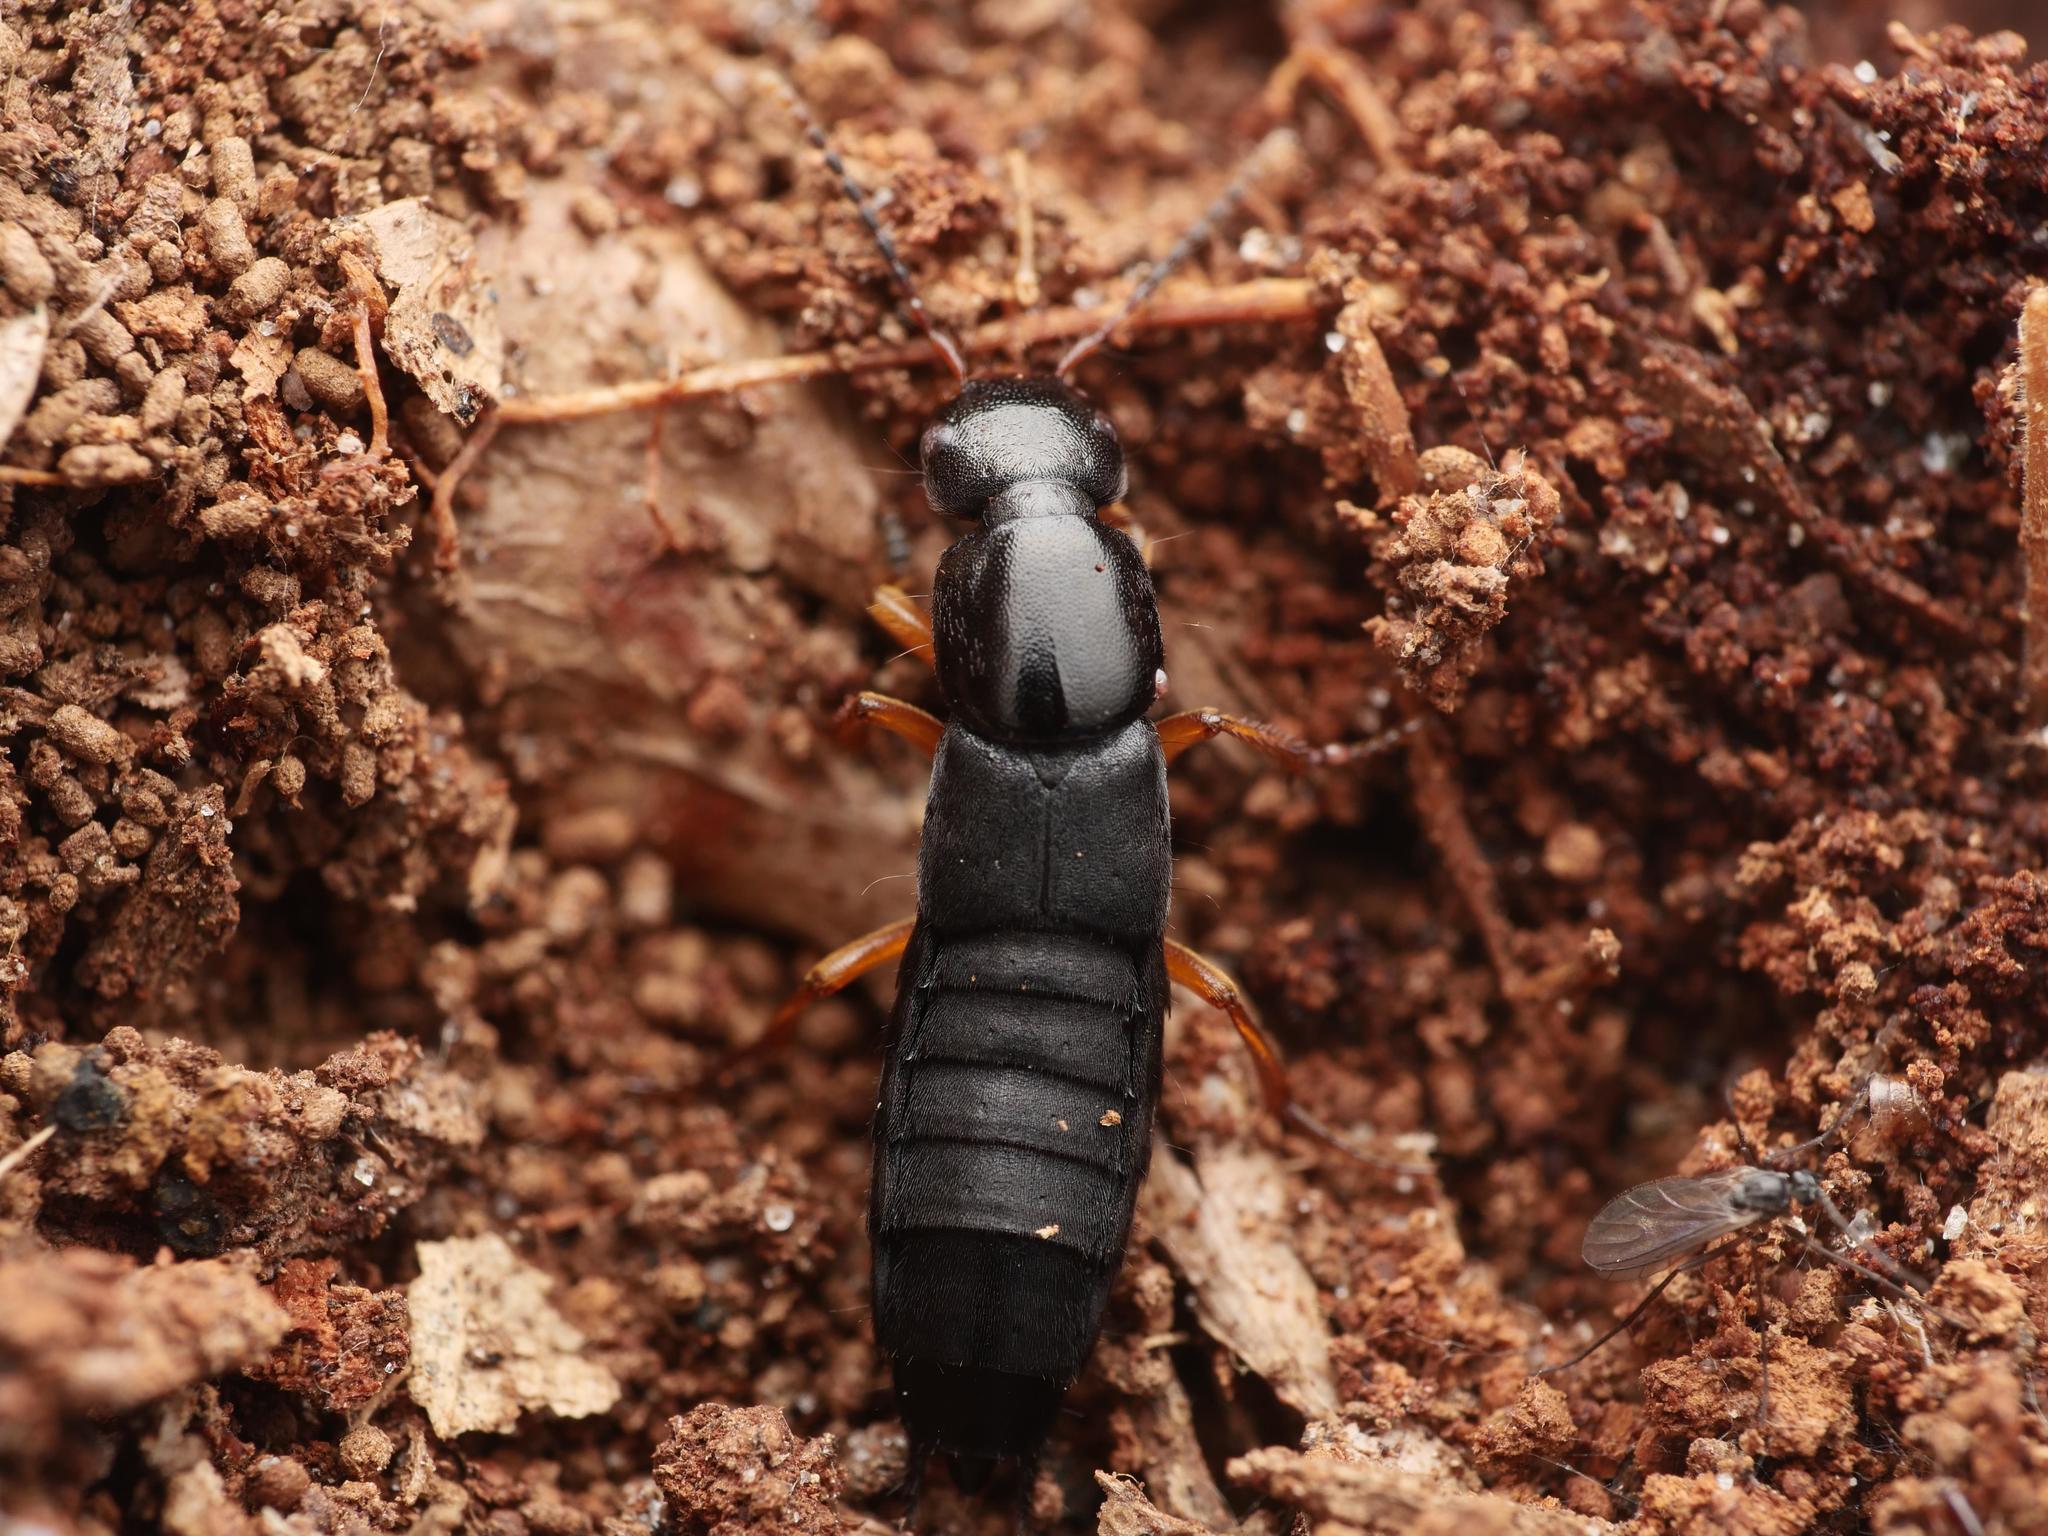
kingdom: Animalia
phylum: Arthropoda
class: Insecta
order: Coleoptera
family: Staphylinidae
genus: Ocypus
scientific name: Ocypus brunnipes
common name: Rove beetle
